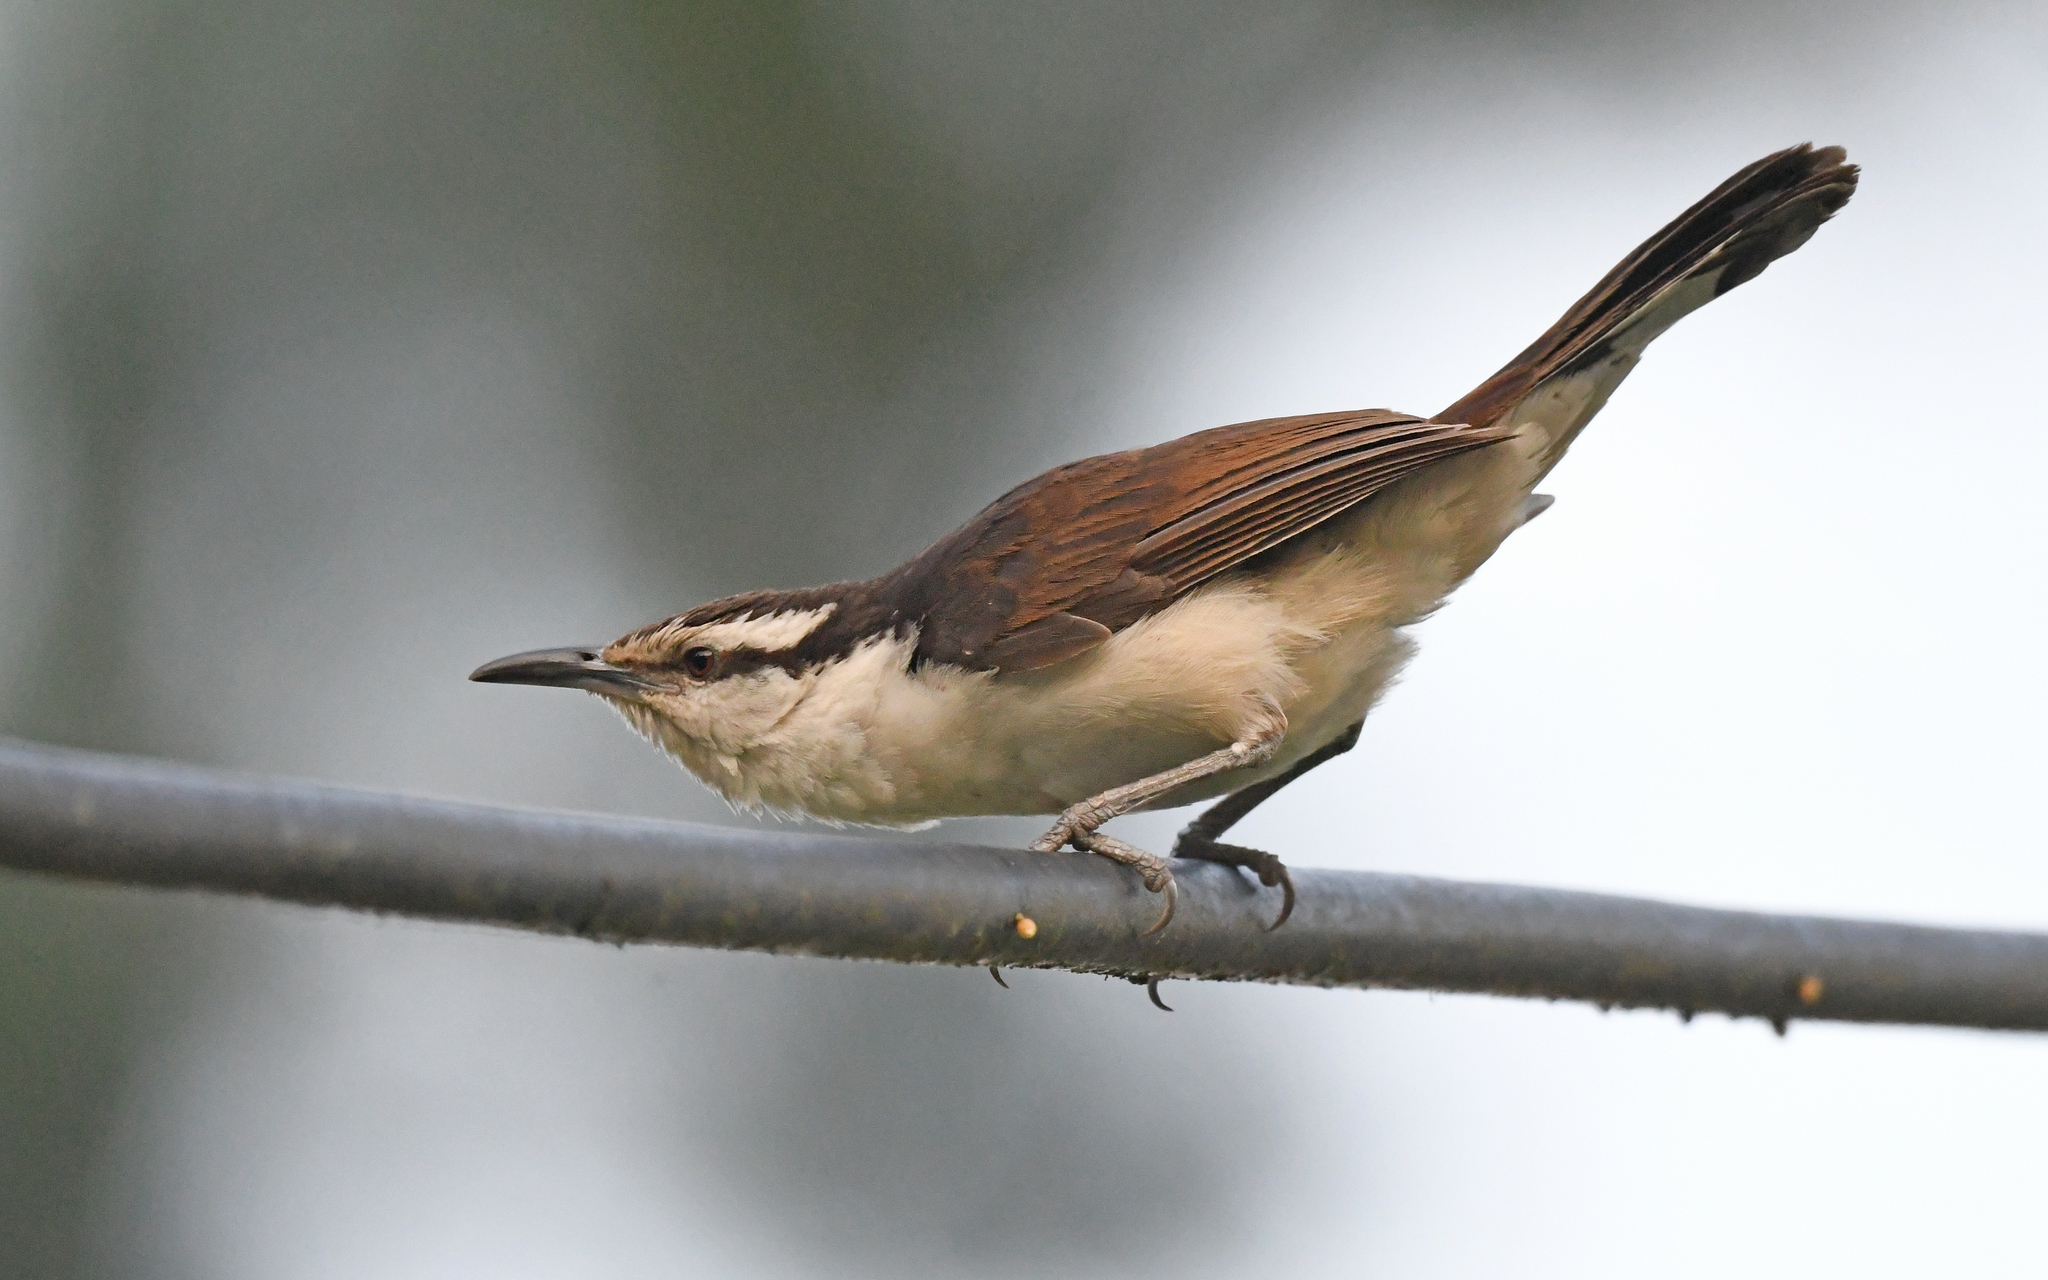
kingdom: Animalia
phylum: Chordata
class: Aves
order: Passeriformes
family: Troglodytidae
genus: Campylorhynchus
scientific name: Campylorhynchus griseus
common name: Bicolored wren
